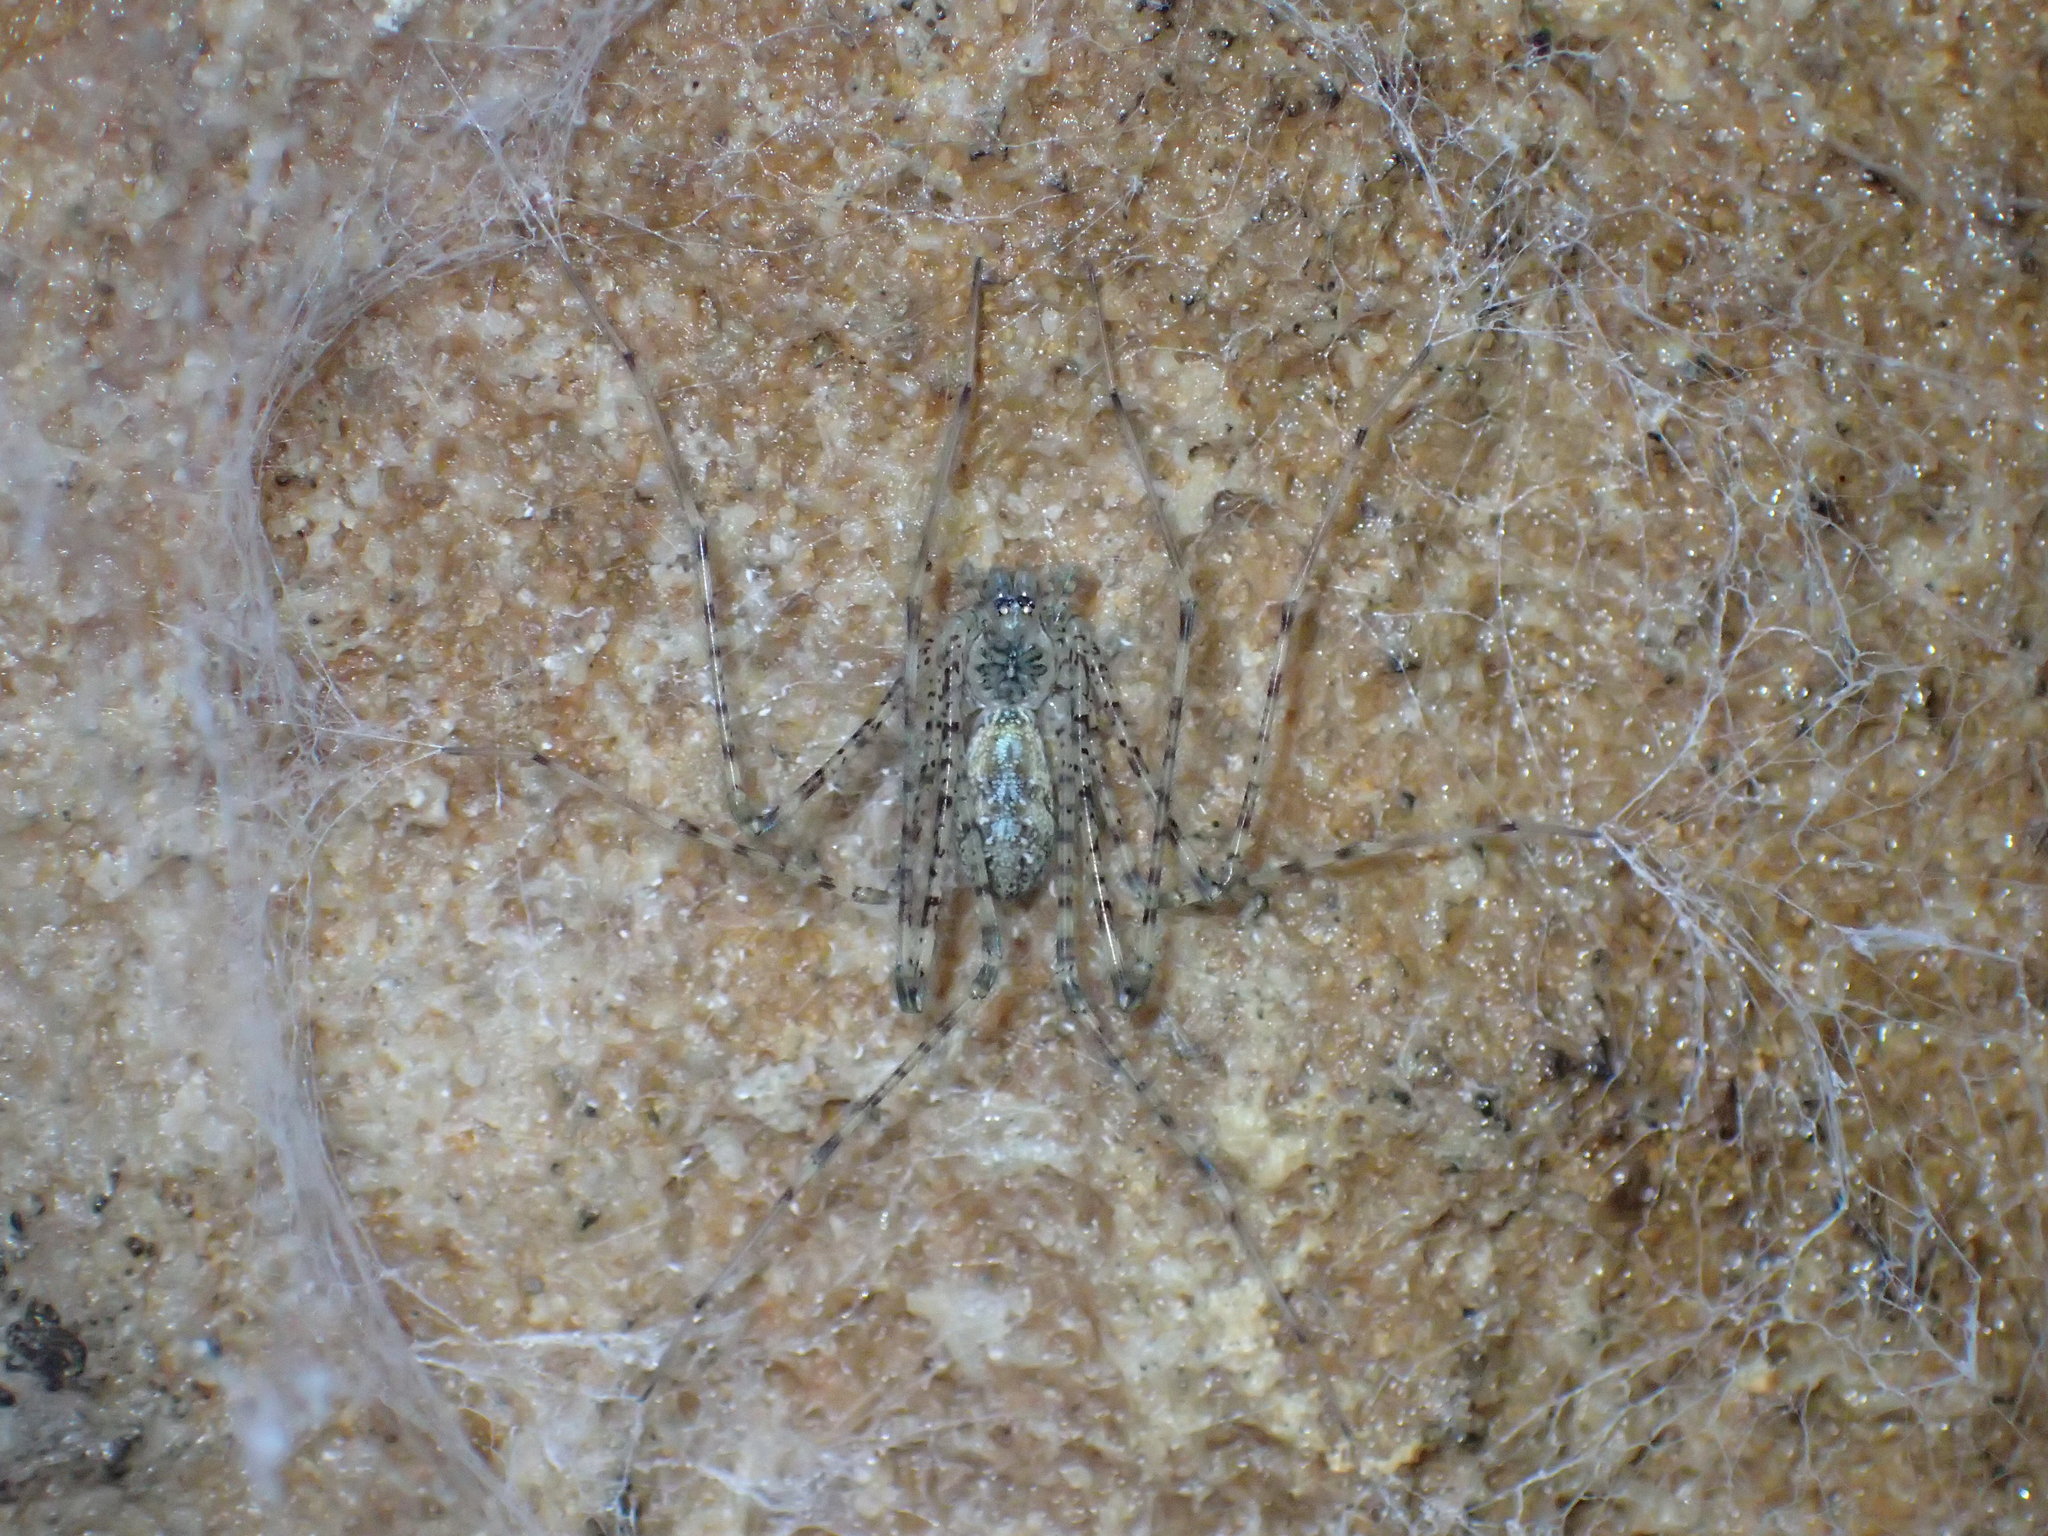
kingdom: Animalia
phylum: Arthropoda
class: Arachnida
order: Araneae
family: Hypochilidae
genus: Hypochilus
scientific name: Hypochilus thorelli
